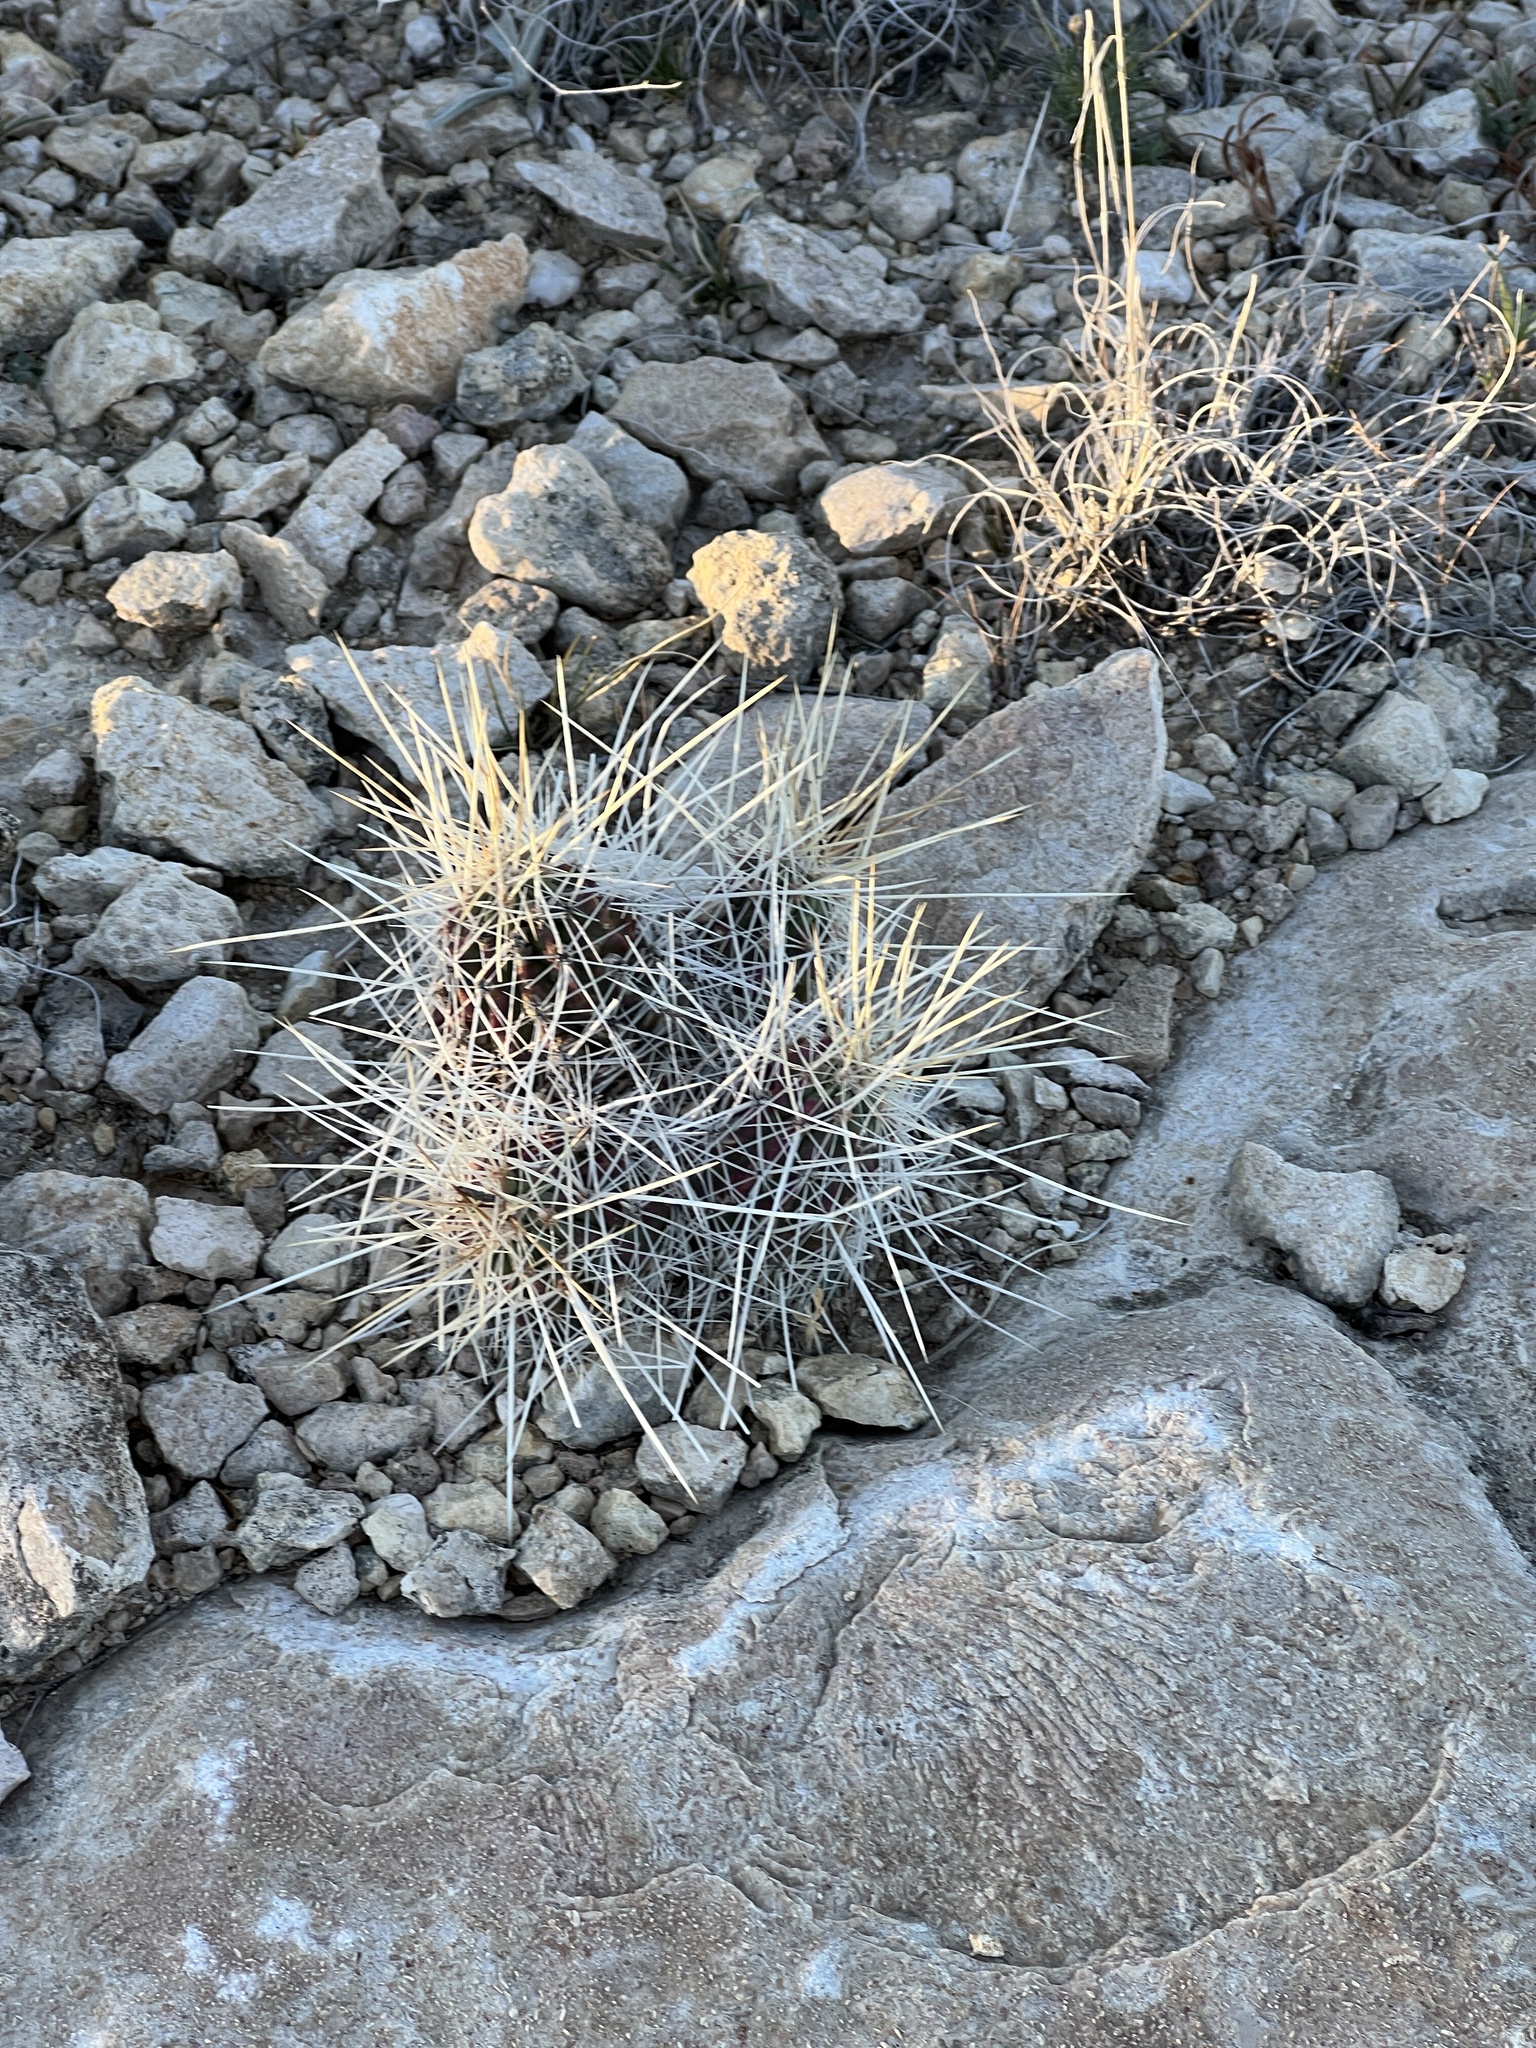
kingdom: Plantae
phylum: Tracheophyta
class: Magnoliopsida
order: Caryophyllales
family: Cactaceae
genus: Echinocereus
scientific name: Echinocereus stramineus
